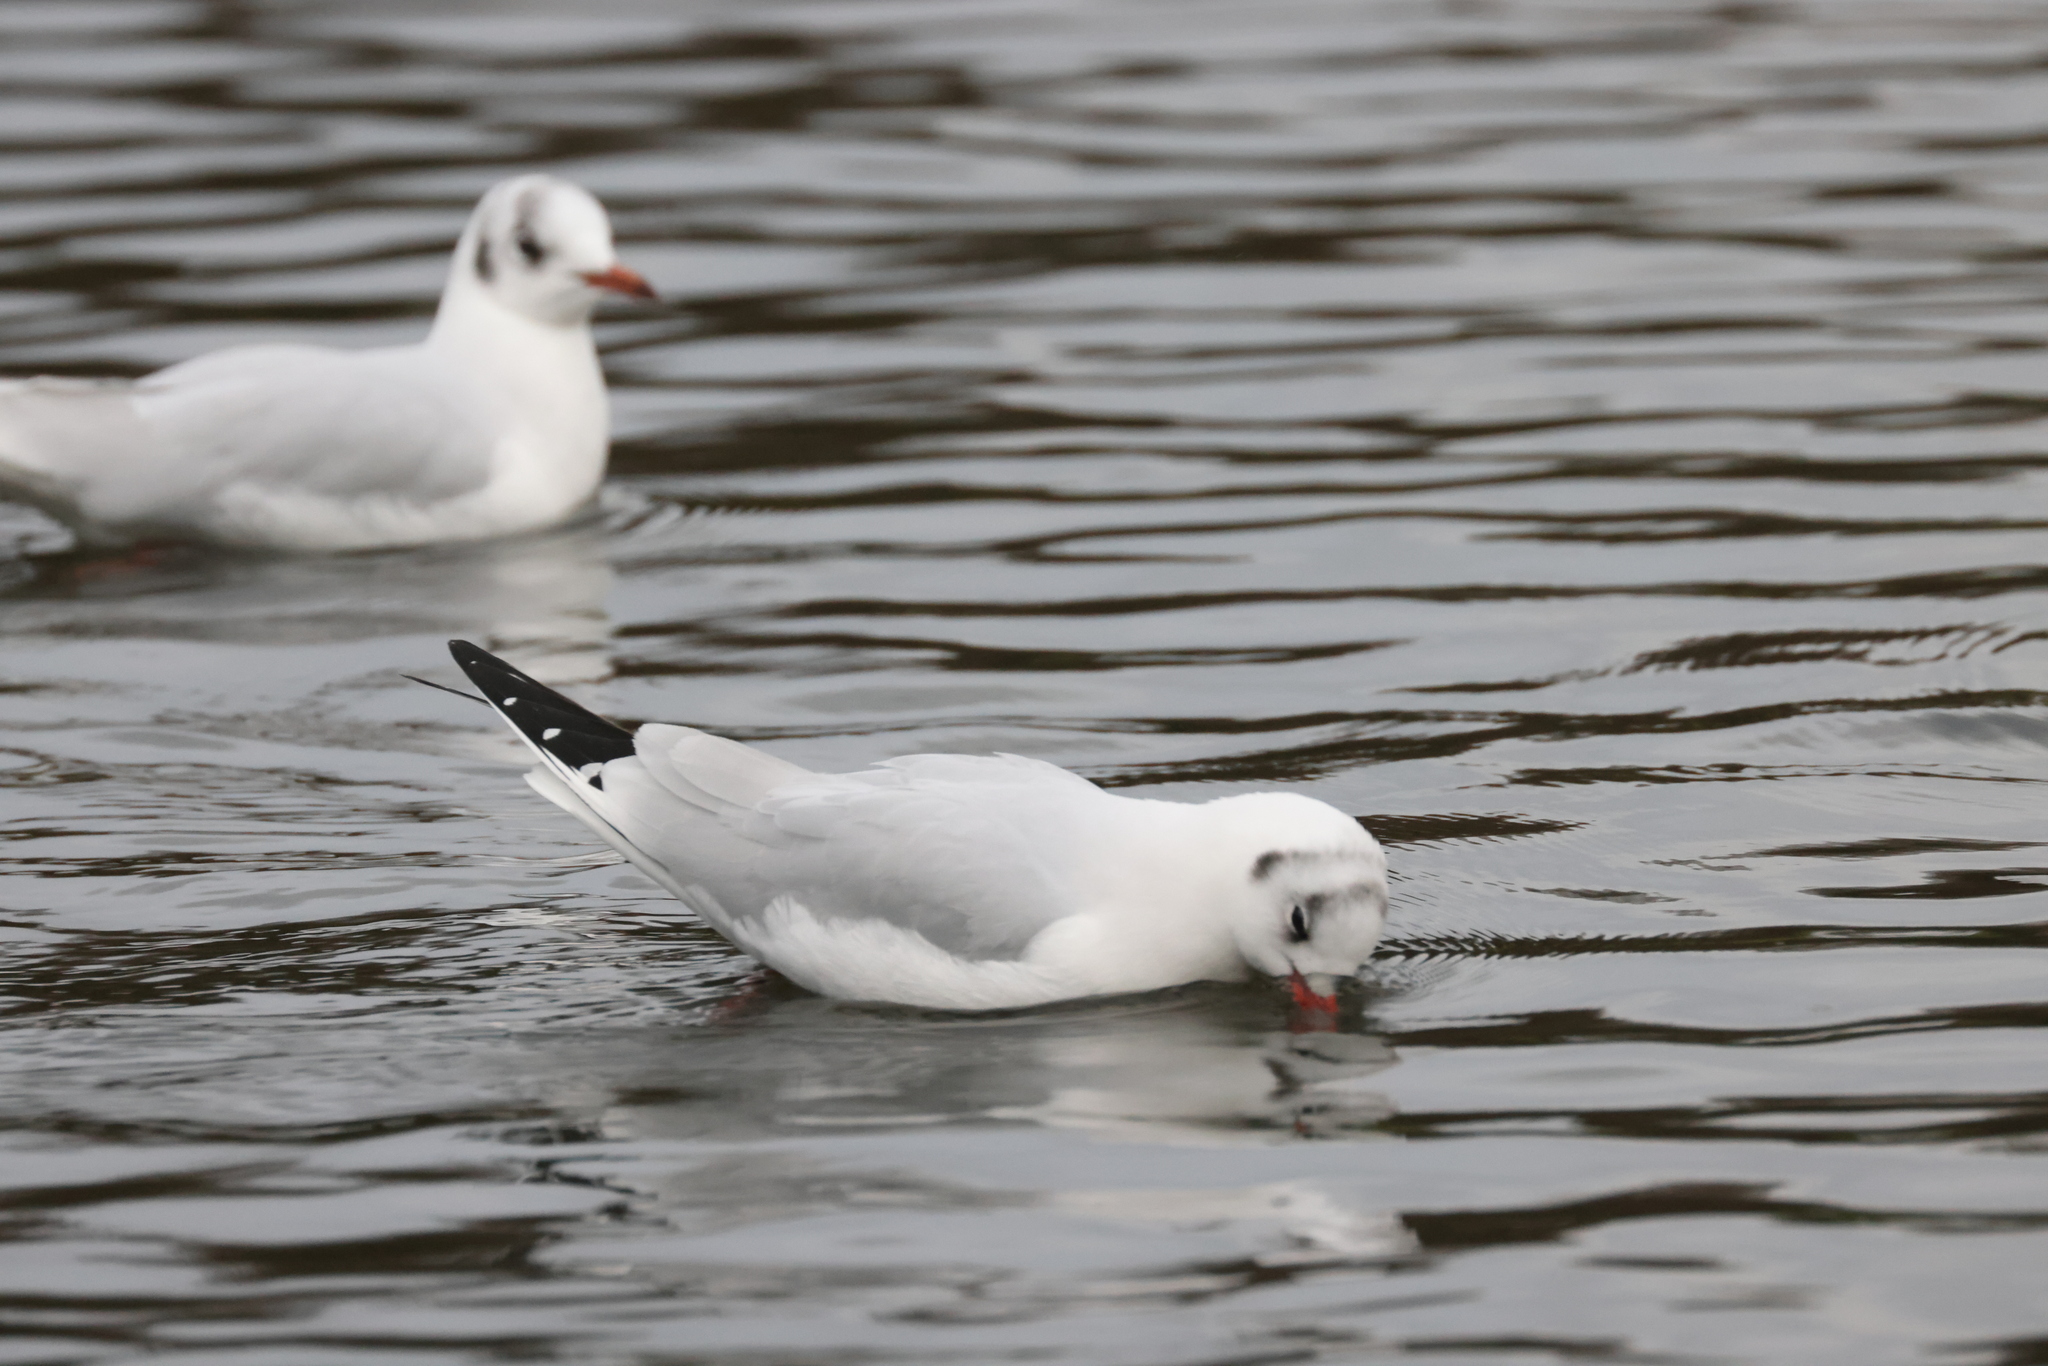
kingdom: Animalia
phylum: Chordata
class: Aves
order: Charadriiformes
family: Laridae
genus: Chroicocephalus
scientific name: Chroicocephalus ridibundus
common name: Black-headed gull
